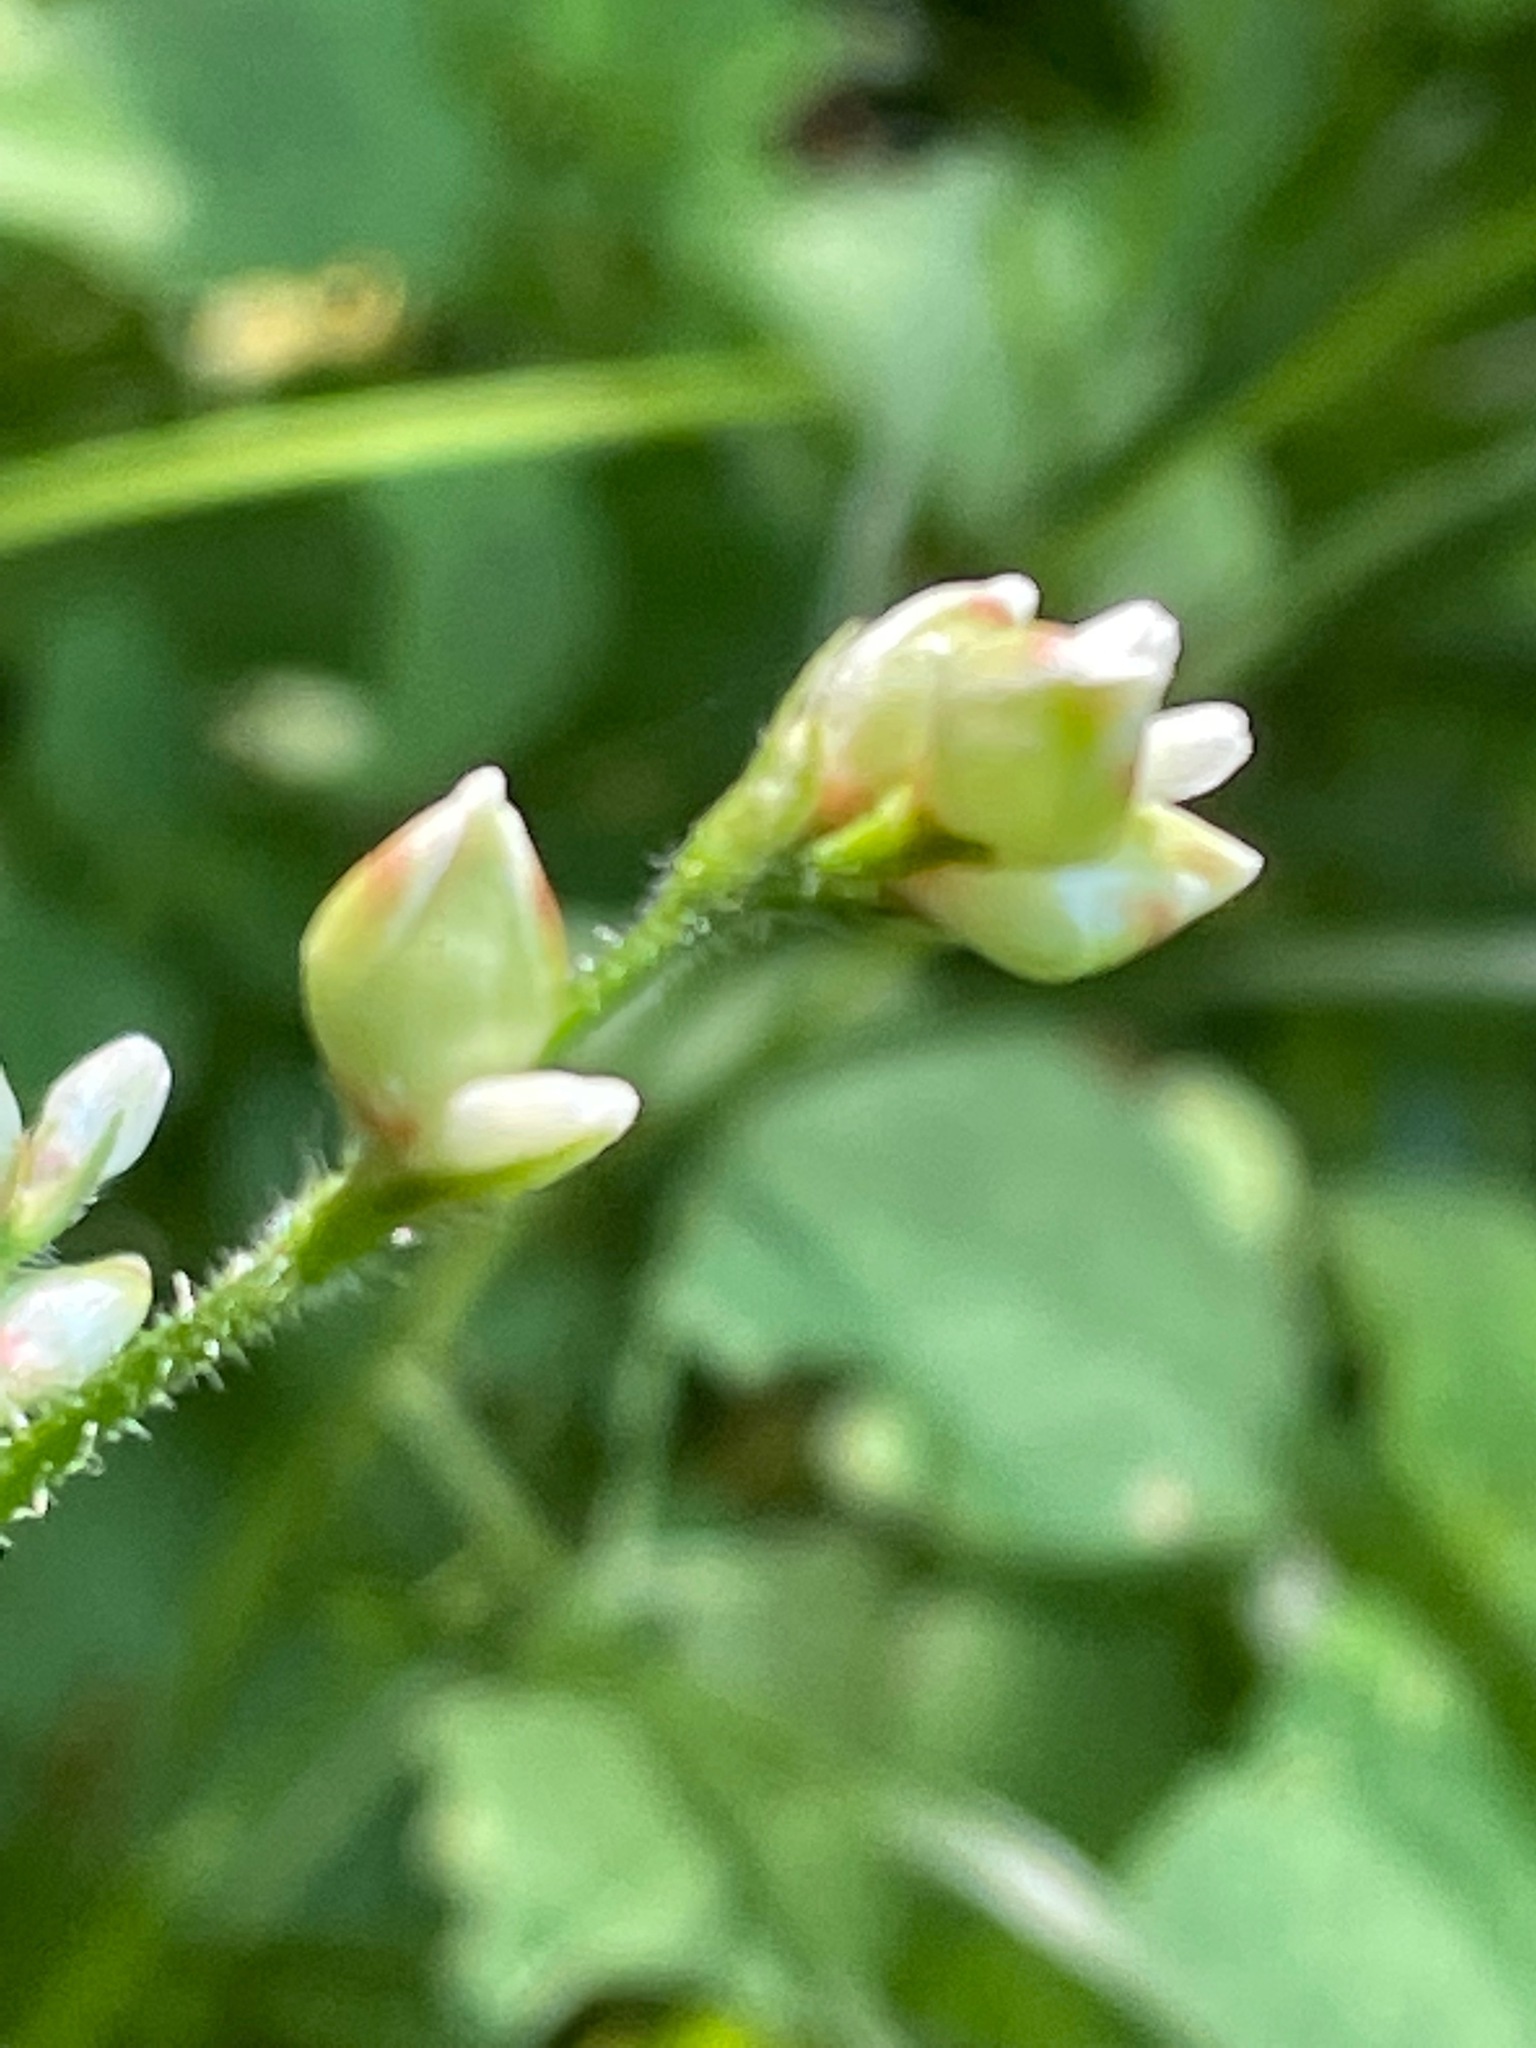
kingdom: Plantae
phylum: Tracheophyta
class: Magnoliopsida
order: Caryophyllales
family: Polygonaceae
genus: Persicaria
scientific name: Persicaria arifolia
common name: Halberd-leaved tear-thumb
